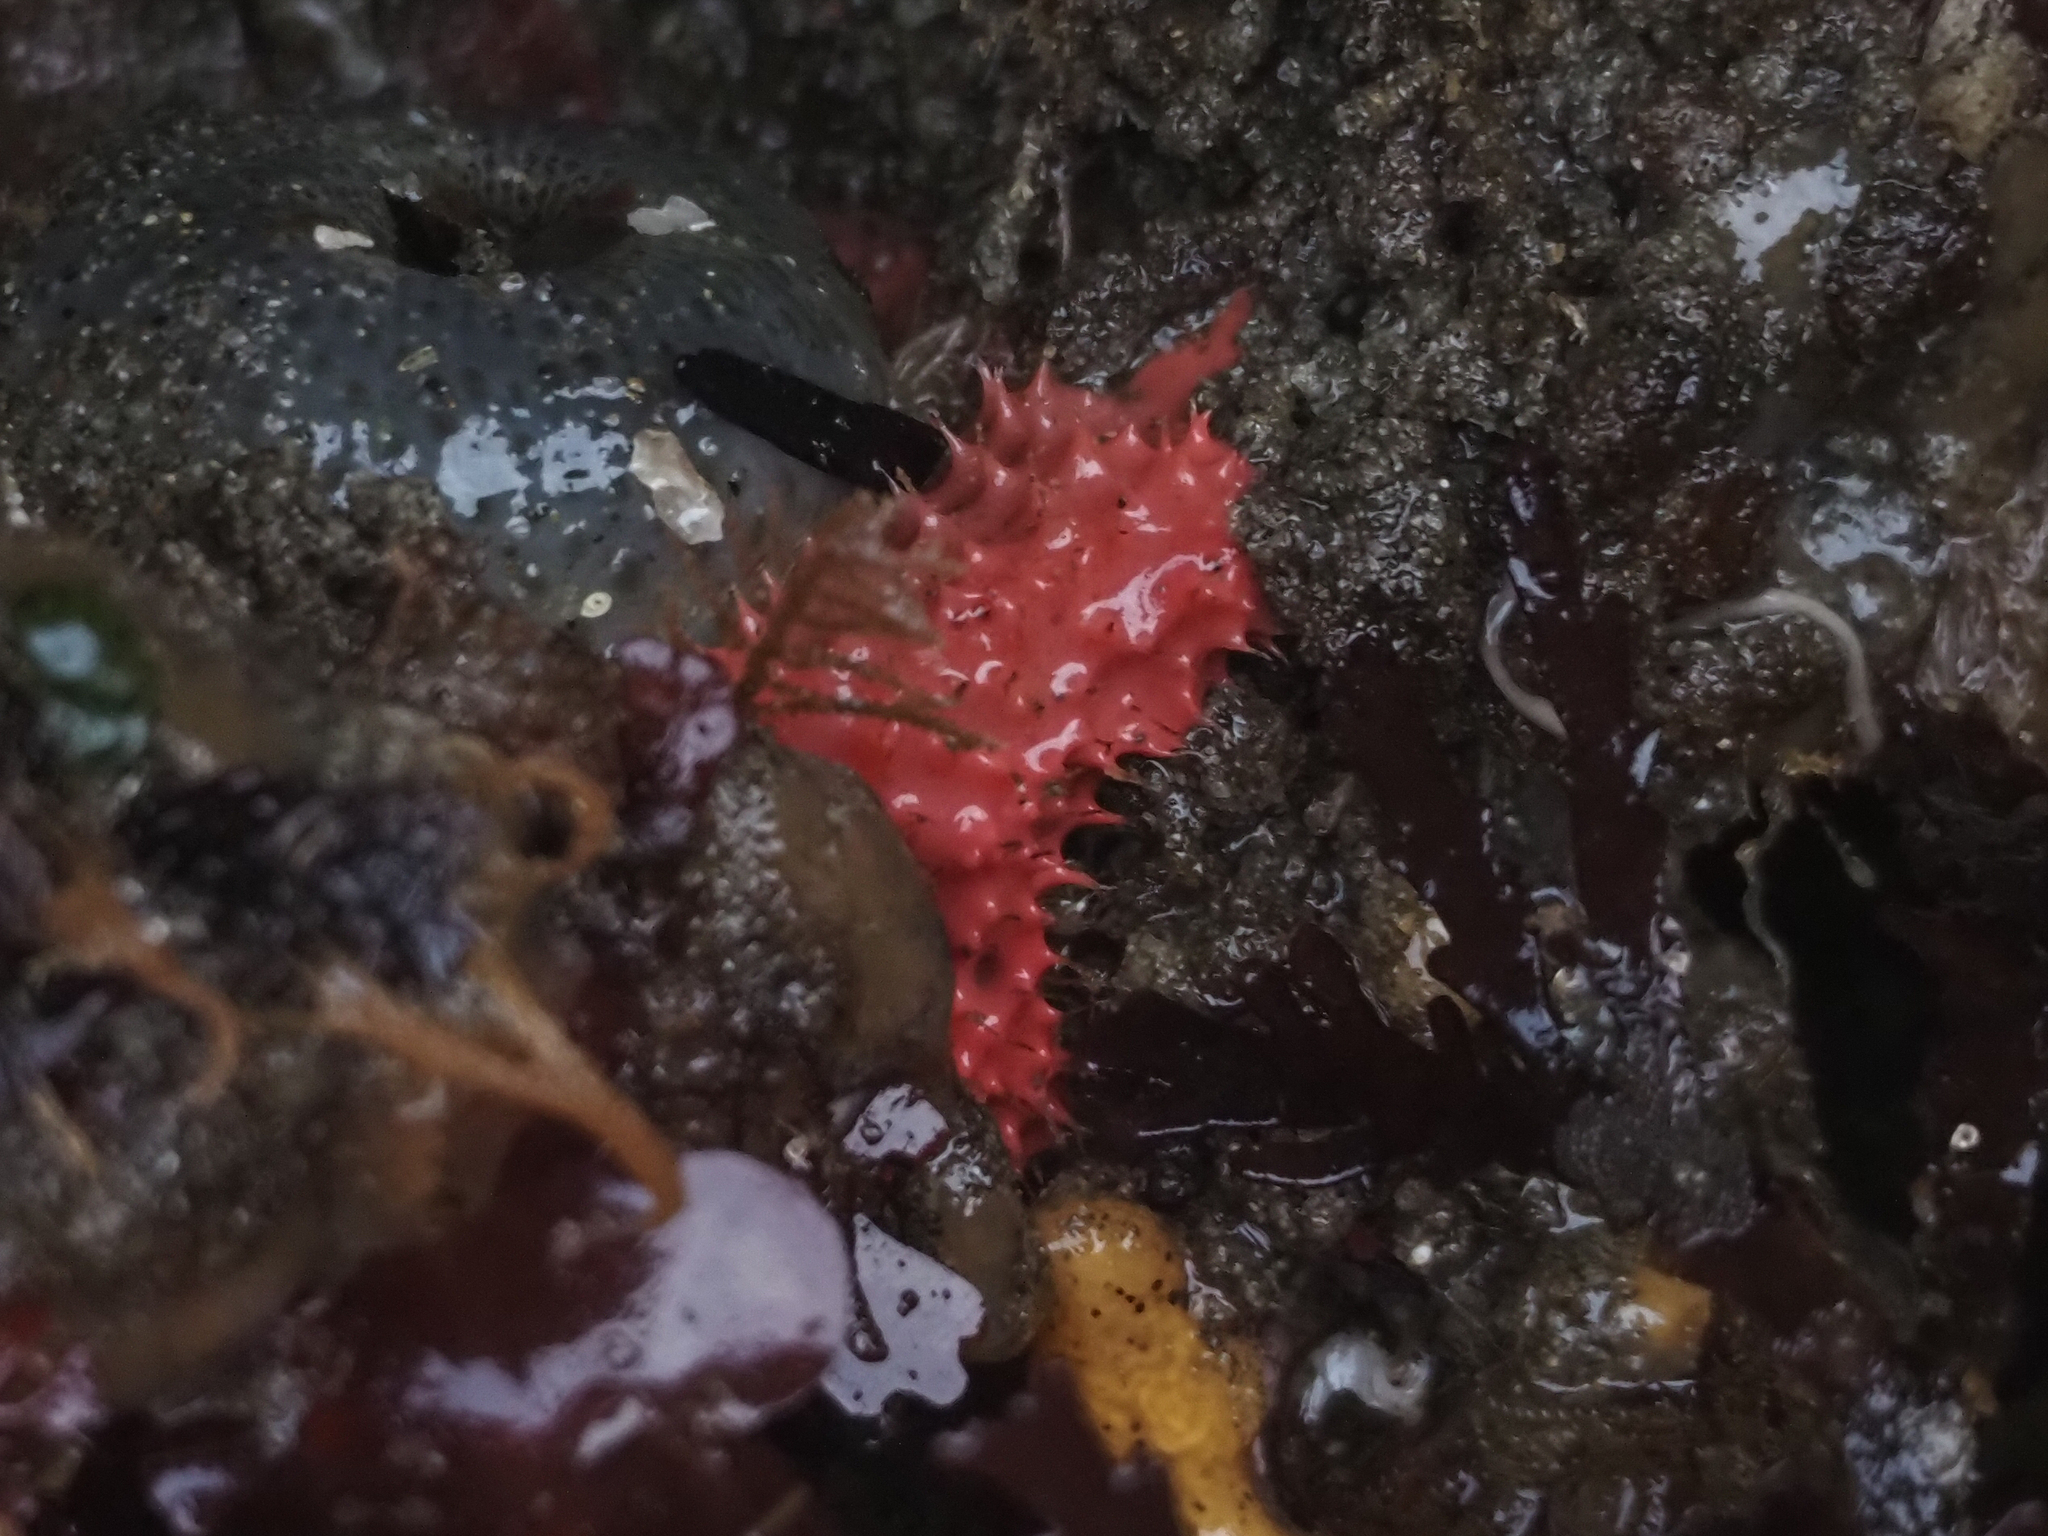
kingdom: Animalia
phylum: Porifera
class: Demospongiae
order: Dendroceratida
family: Darwinellidae
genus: Aplysilla
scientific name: Aplysilla glacialis
